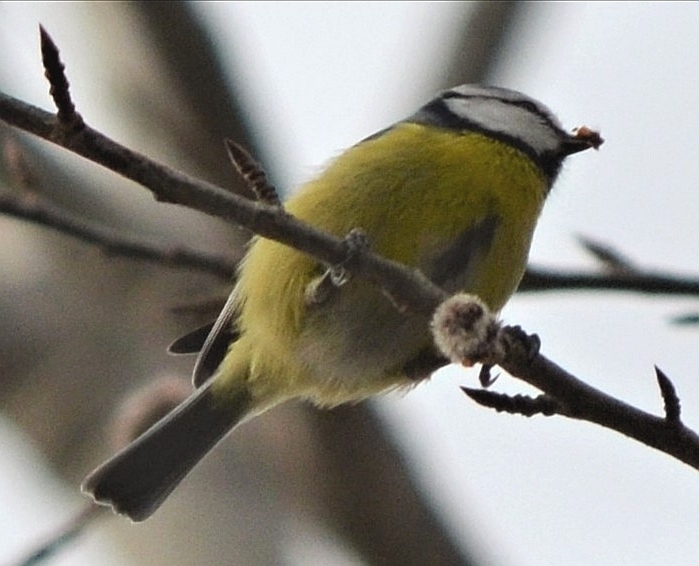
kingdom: Animalia
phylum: Chordata
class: Aves
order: Passeriformes
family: Paridae
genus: Cyanistes
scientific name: Cyanistes caeruleus
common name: Eurasian blue tit
